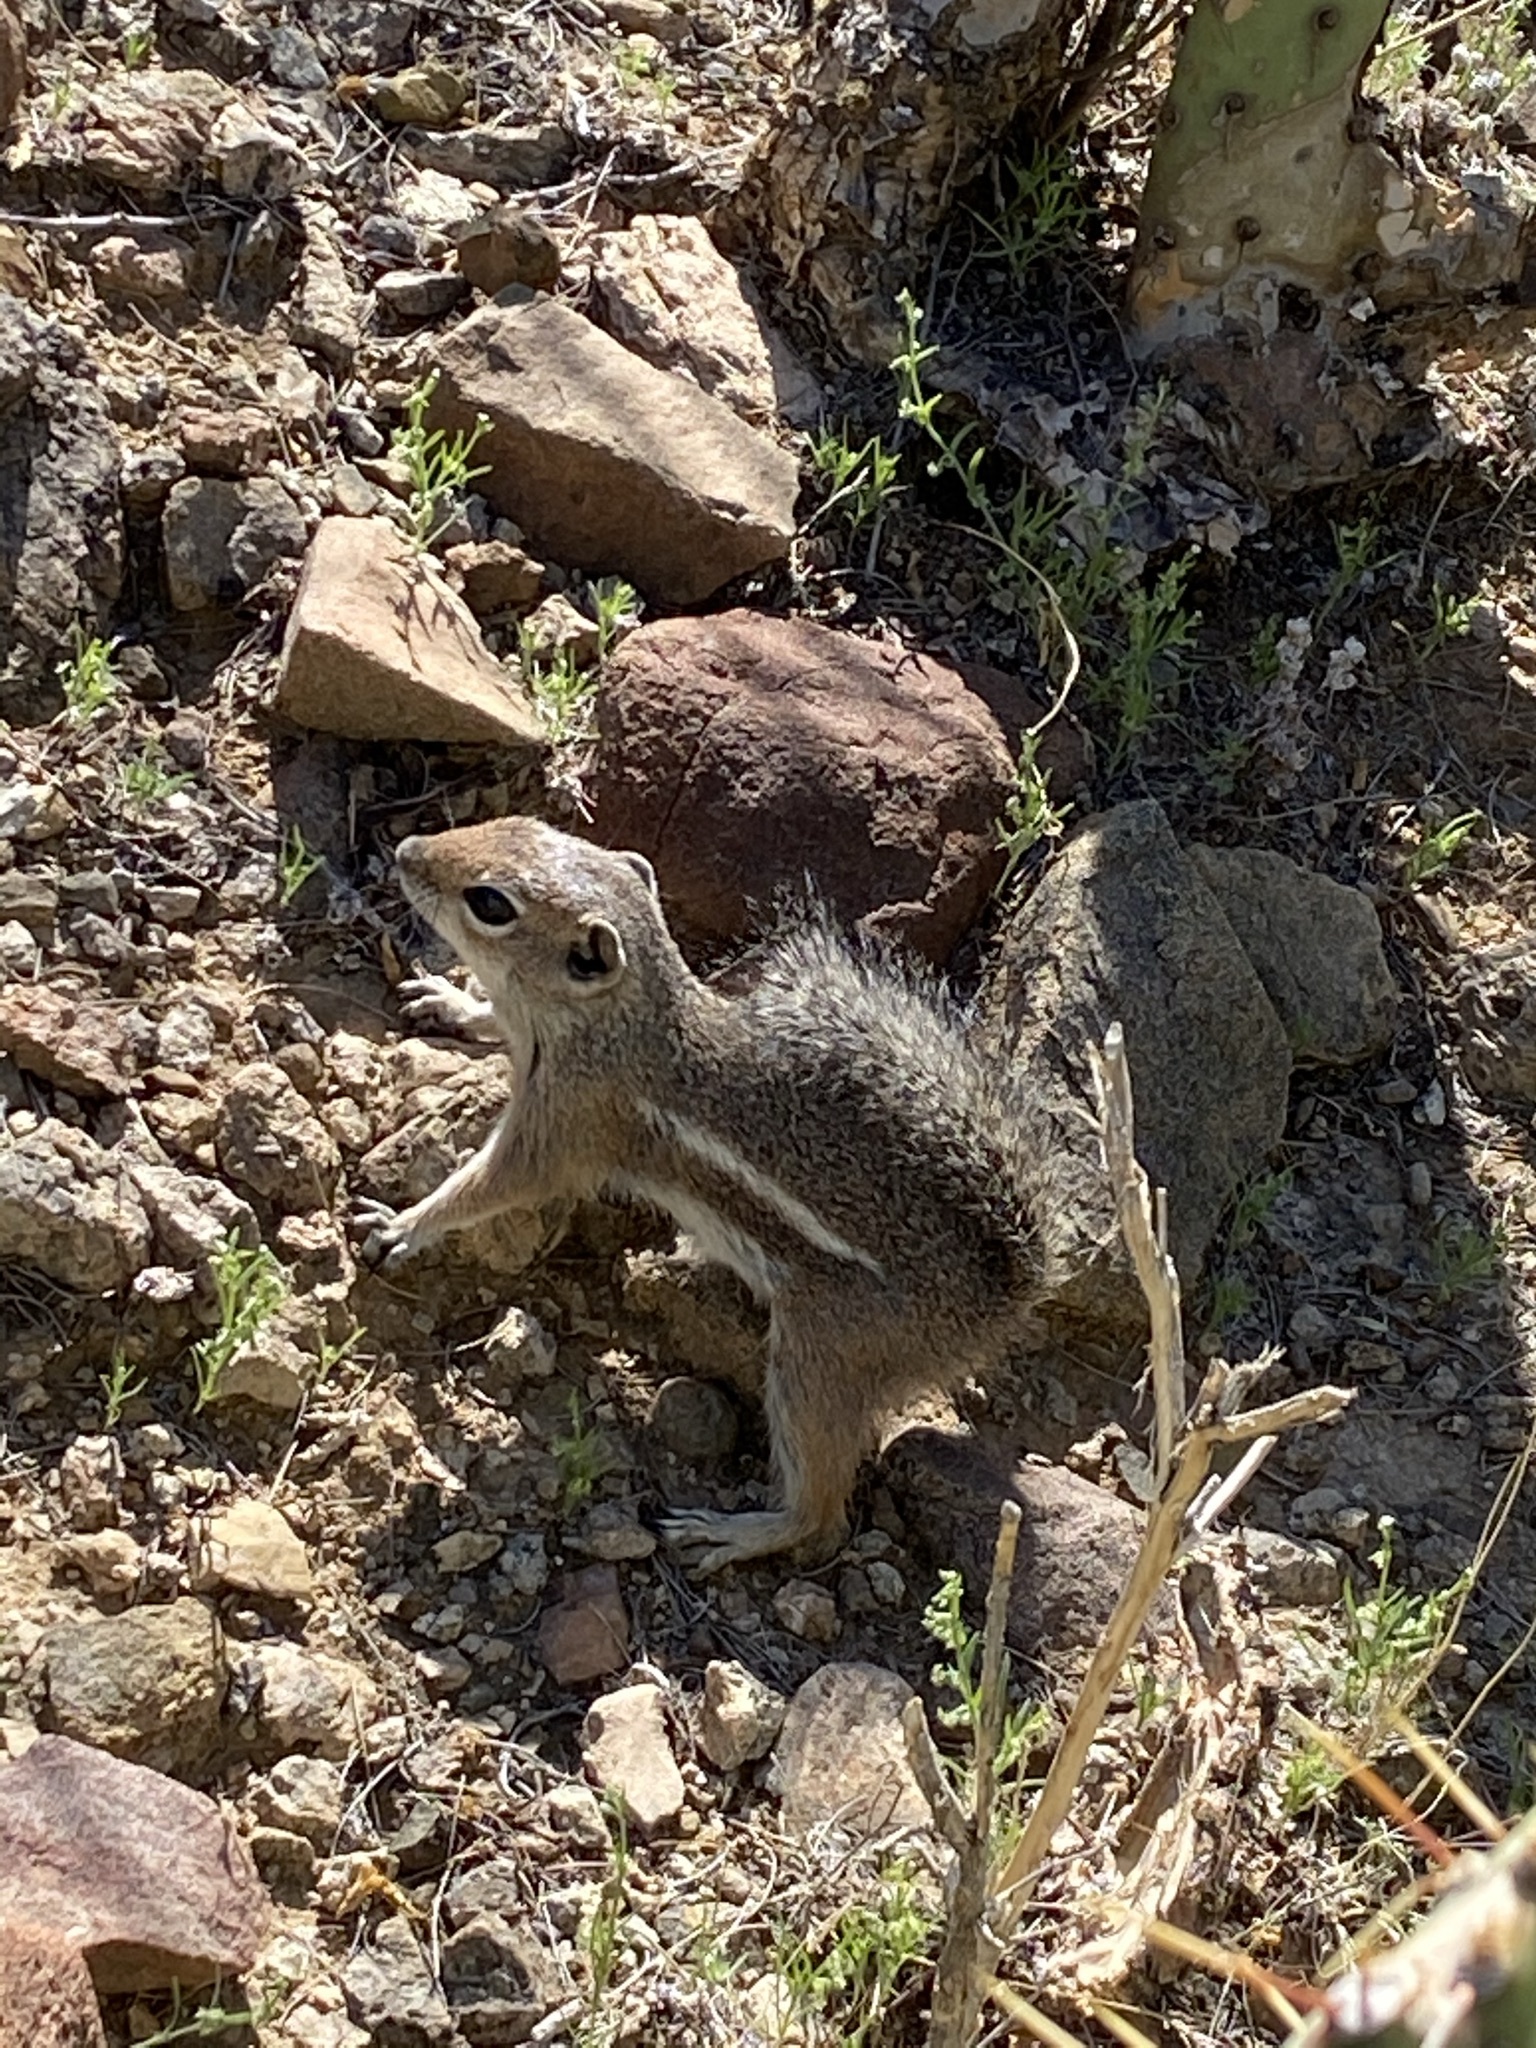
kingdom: Animalia
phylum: Chordata
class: Mammalia
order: Rodentia
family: Sciuridae
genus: Ammospermophilus
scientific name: Ammospermophilus harrisii
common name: Harris's antelope squirrel
